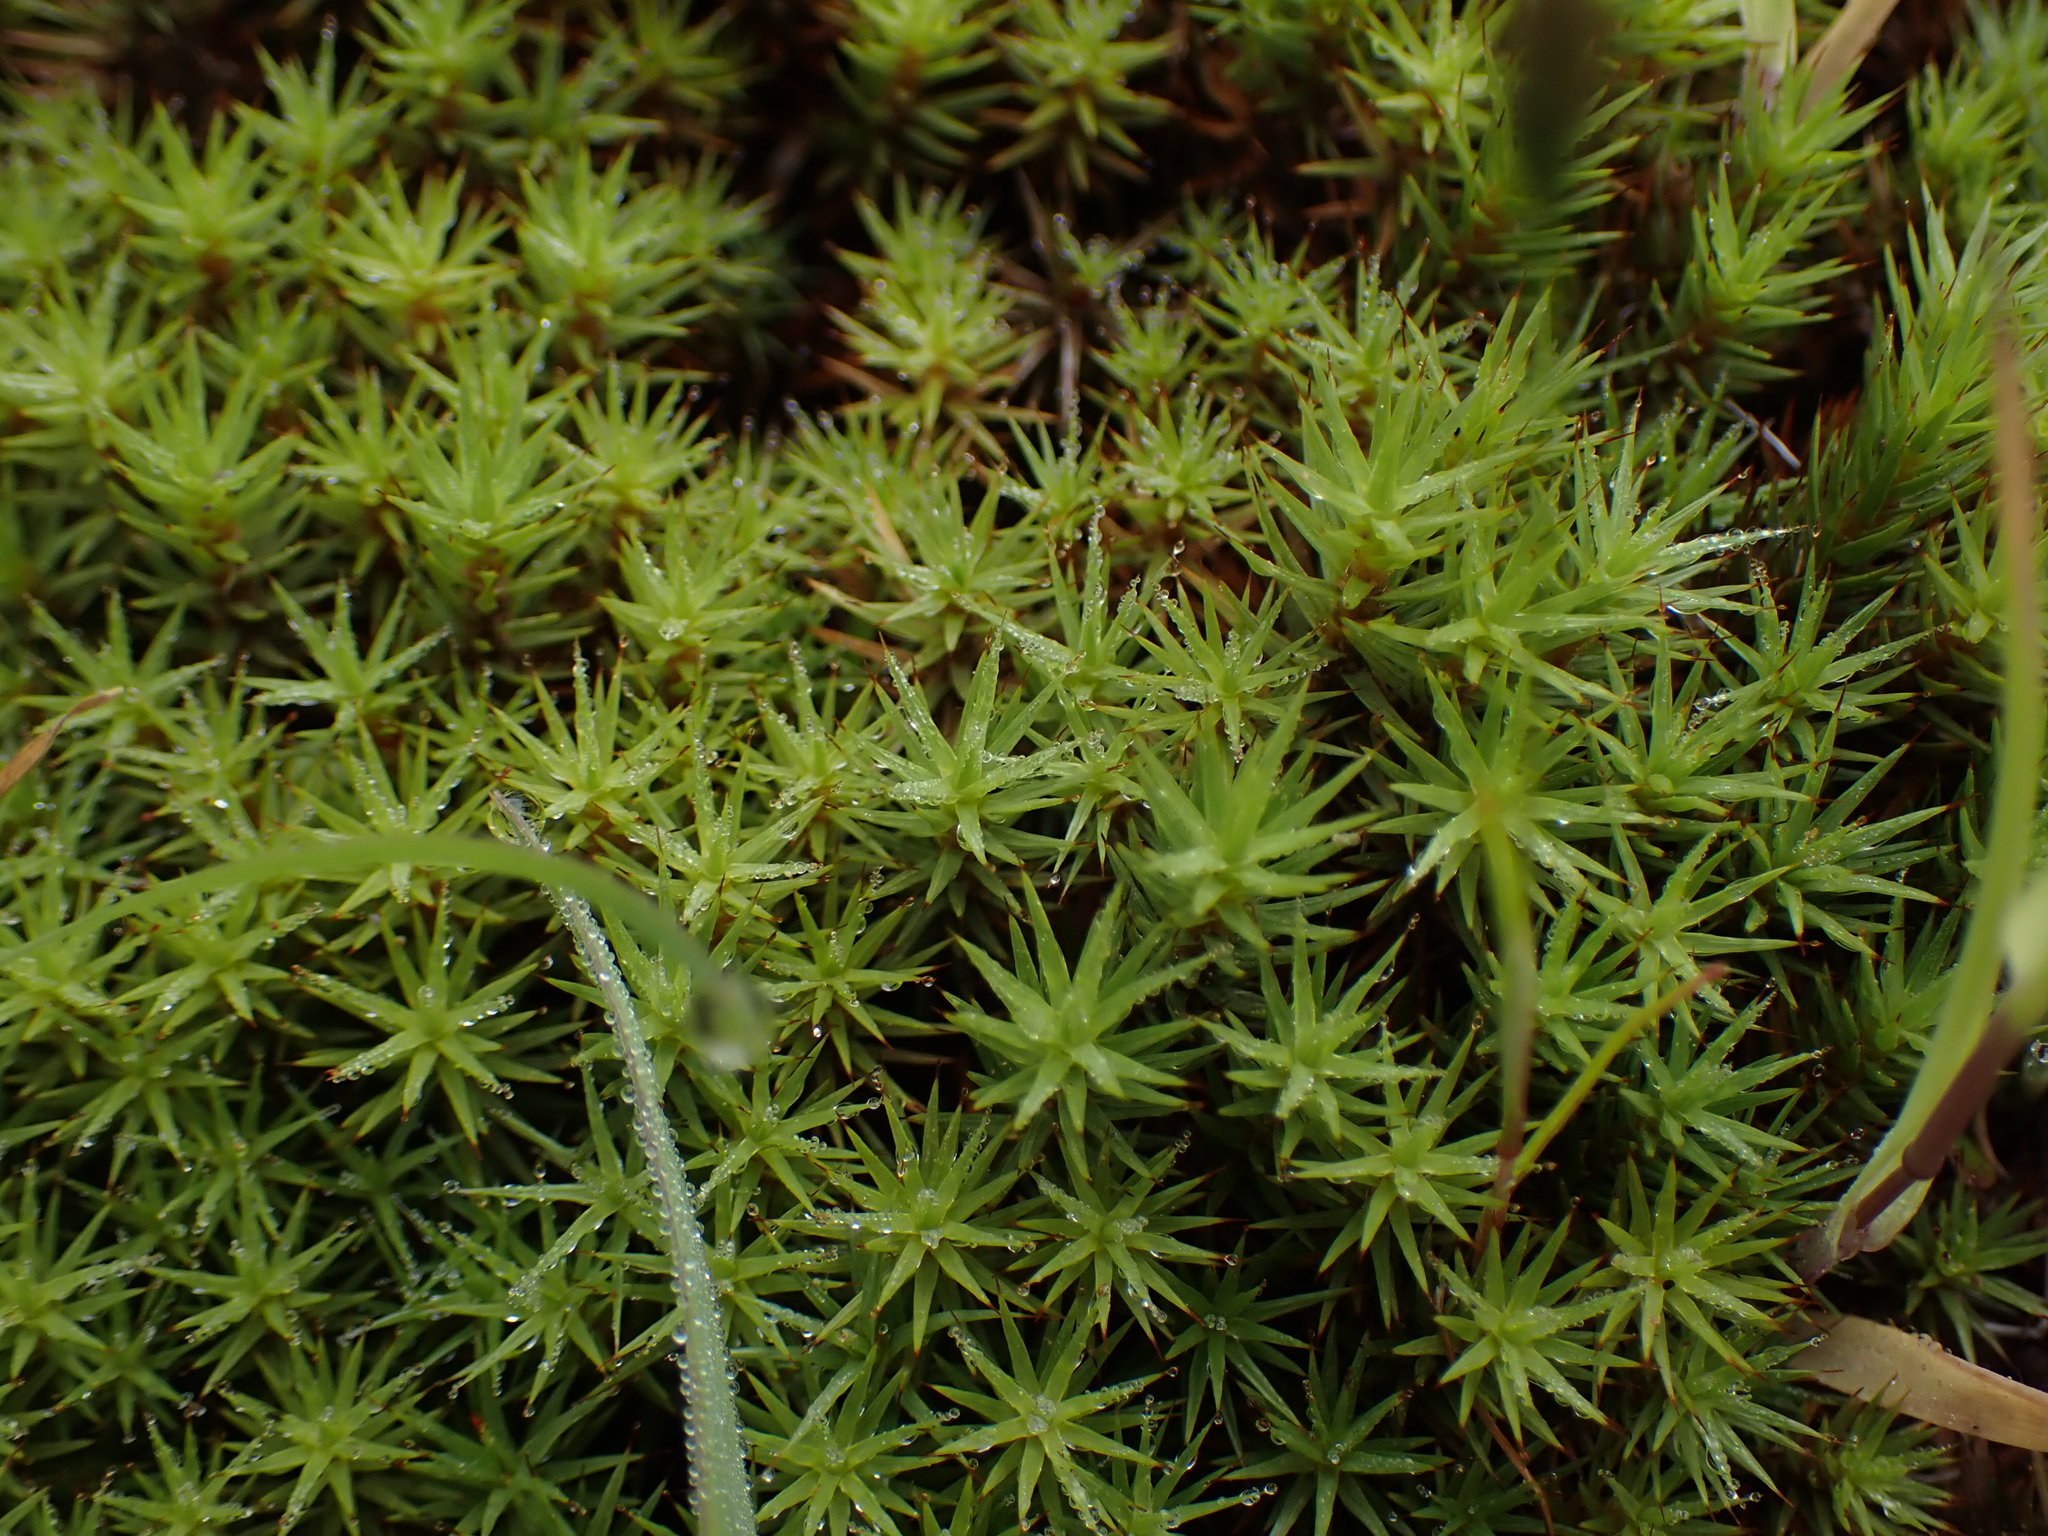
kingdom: Plantae
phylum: Bryophyta
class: Polytrichopsida
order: Polytrichales
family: Polytrichaceae
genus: Polytrichum
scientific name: Polytrichum juniperinum
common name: Juniper haircap moss
